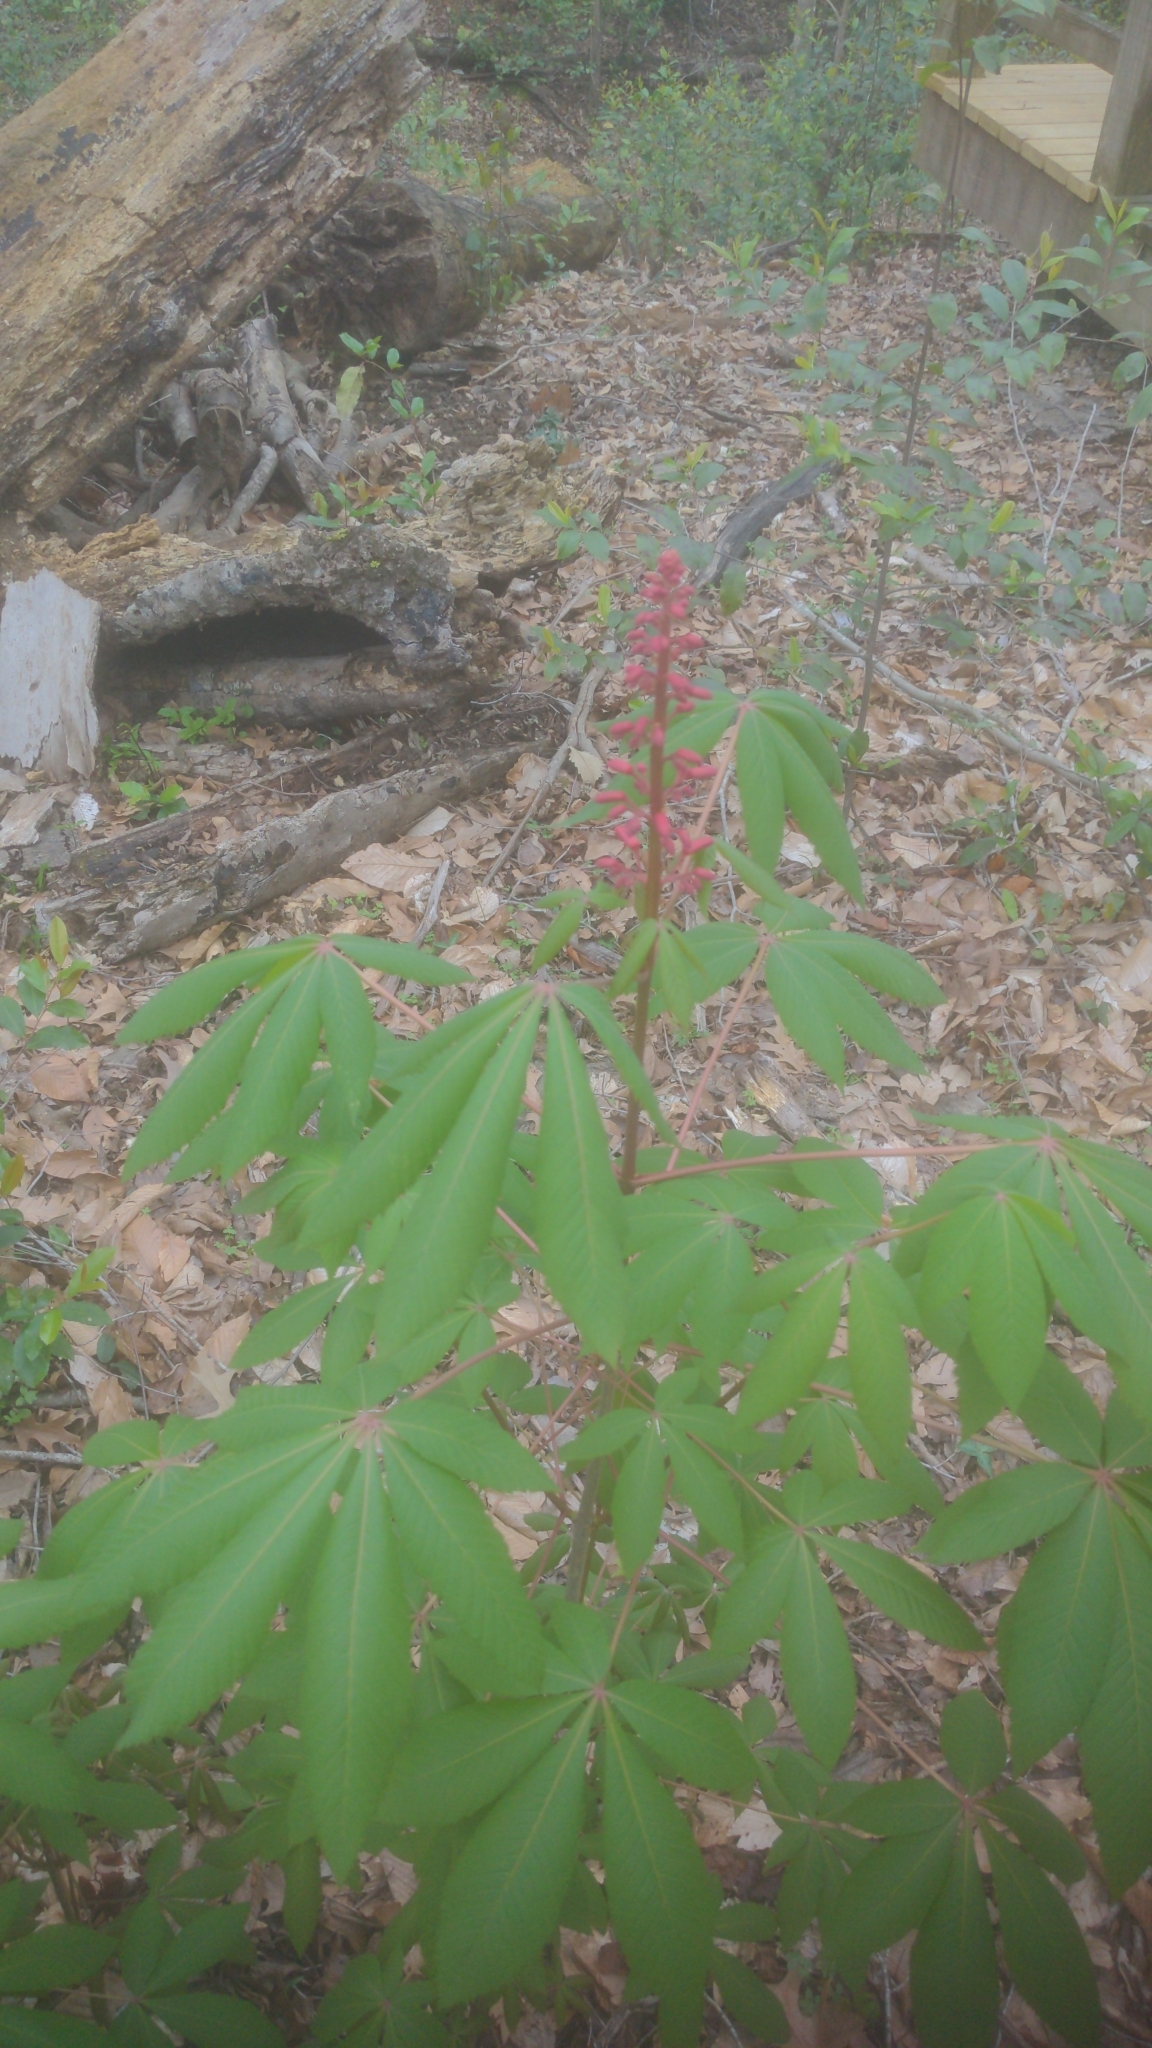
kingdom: Plantae
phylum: Tracheophyta
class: Magnoliopsida
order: Sapindales
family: Sapindaceae
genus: Aesculus
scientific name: Aesculus pavia
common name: Red buckeye
